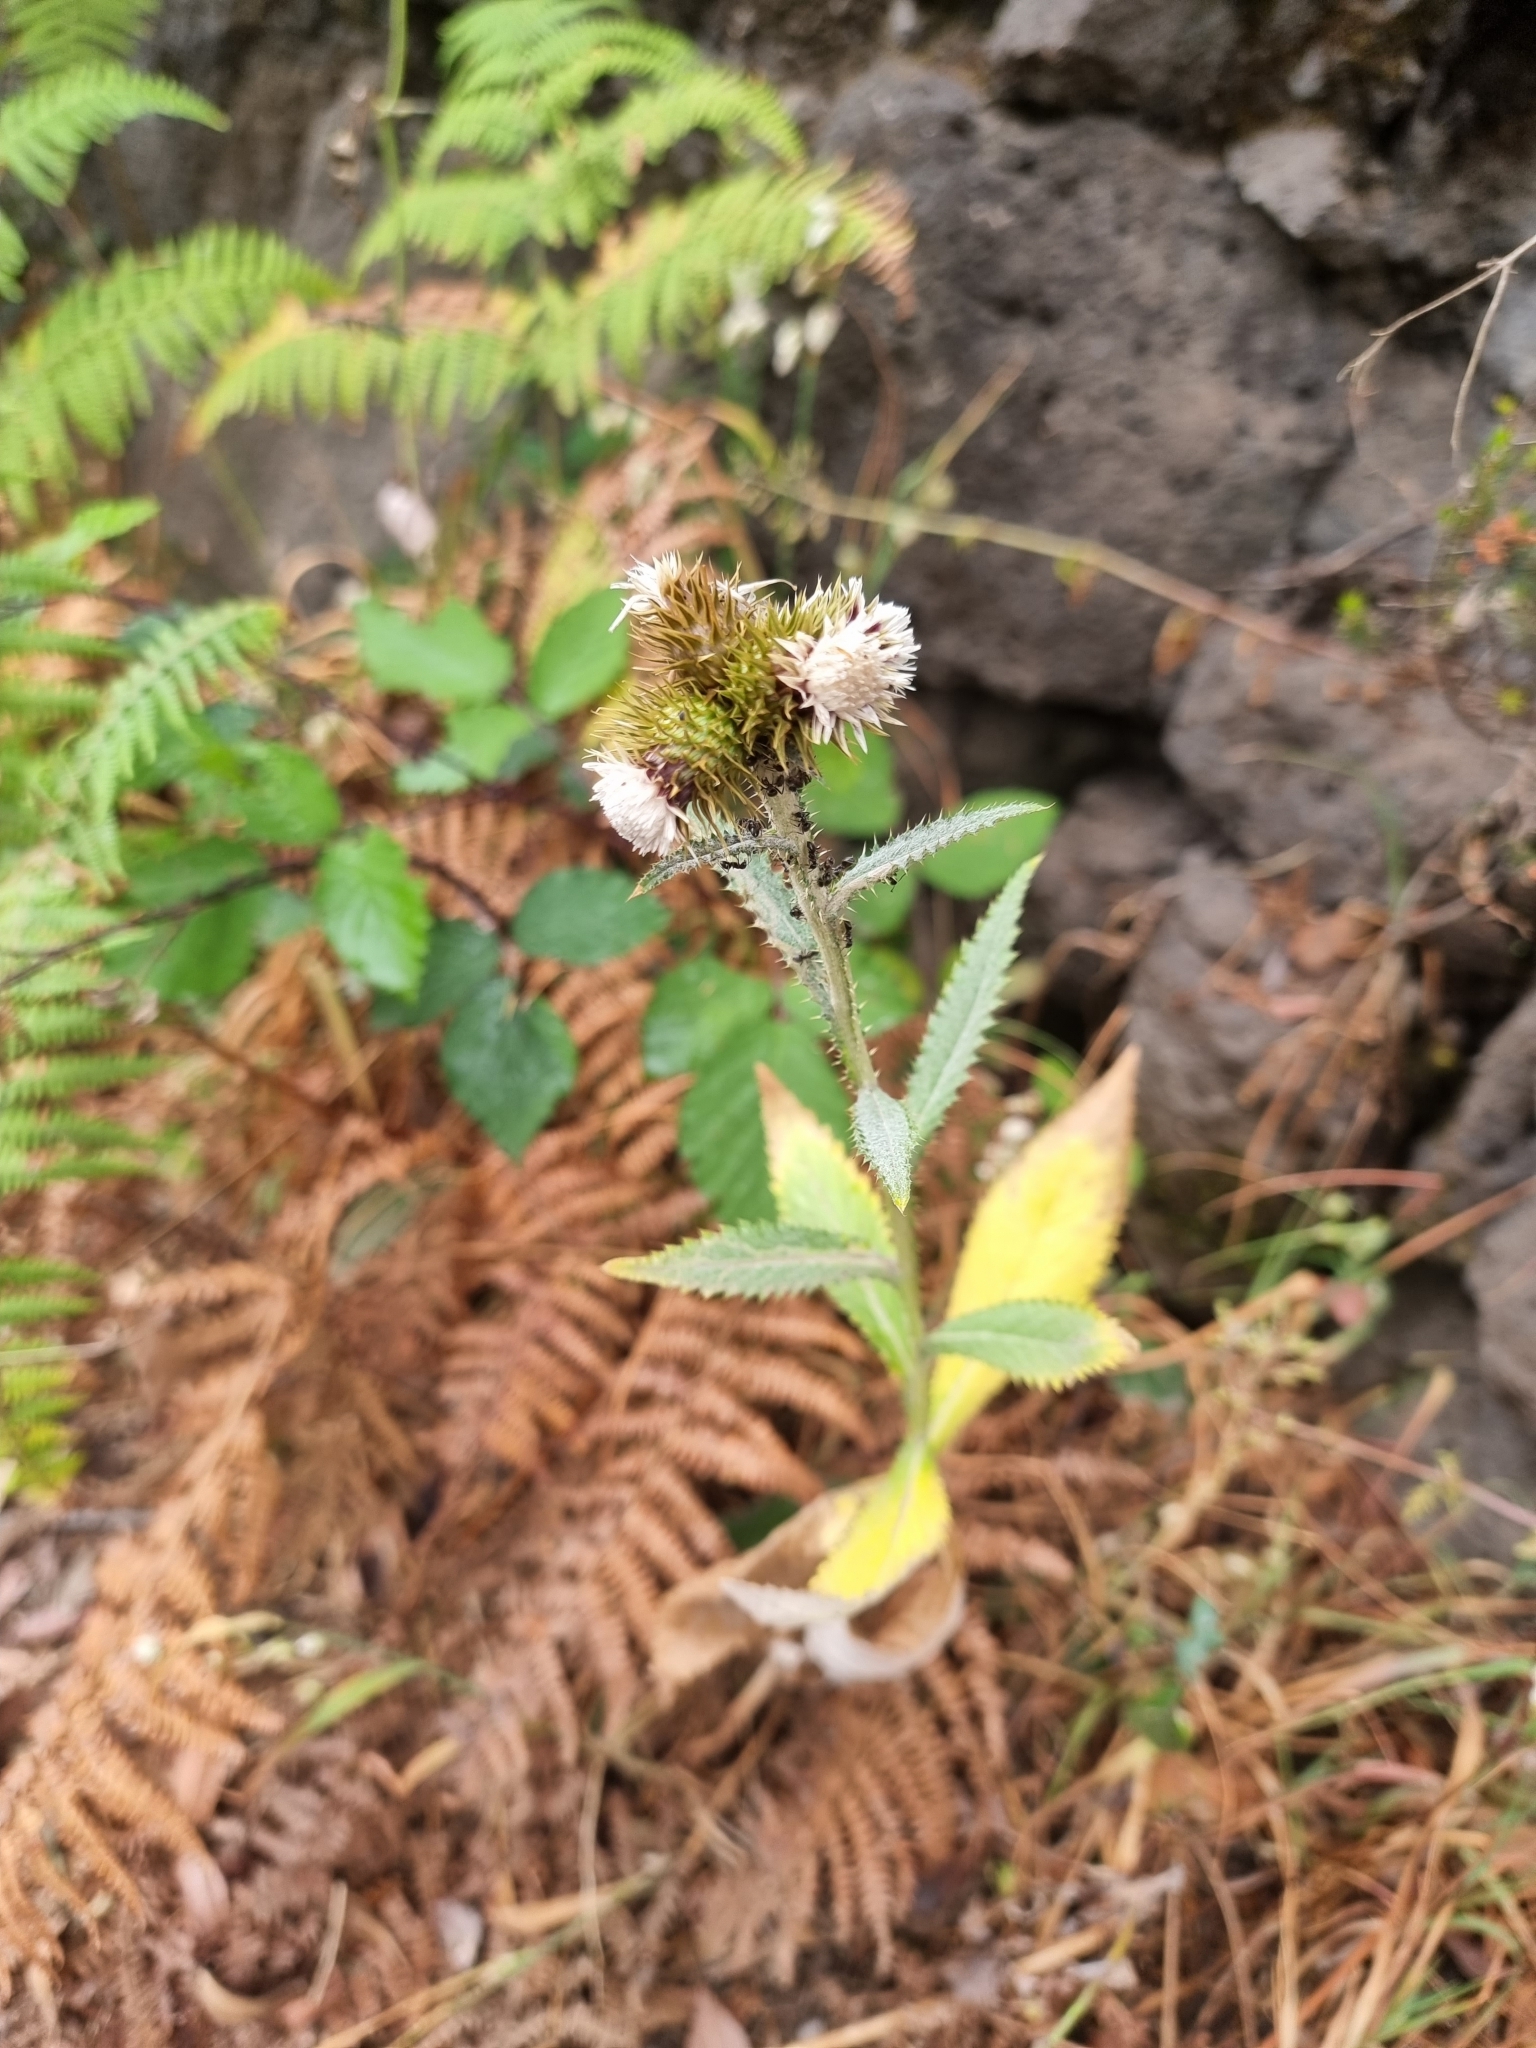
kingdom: Plantae
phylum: Tracheophyta
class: Magnoliopsida
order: Asterales
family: Asteraceae
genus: Carduus
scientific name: Carduus squarrosus
